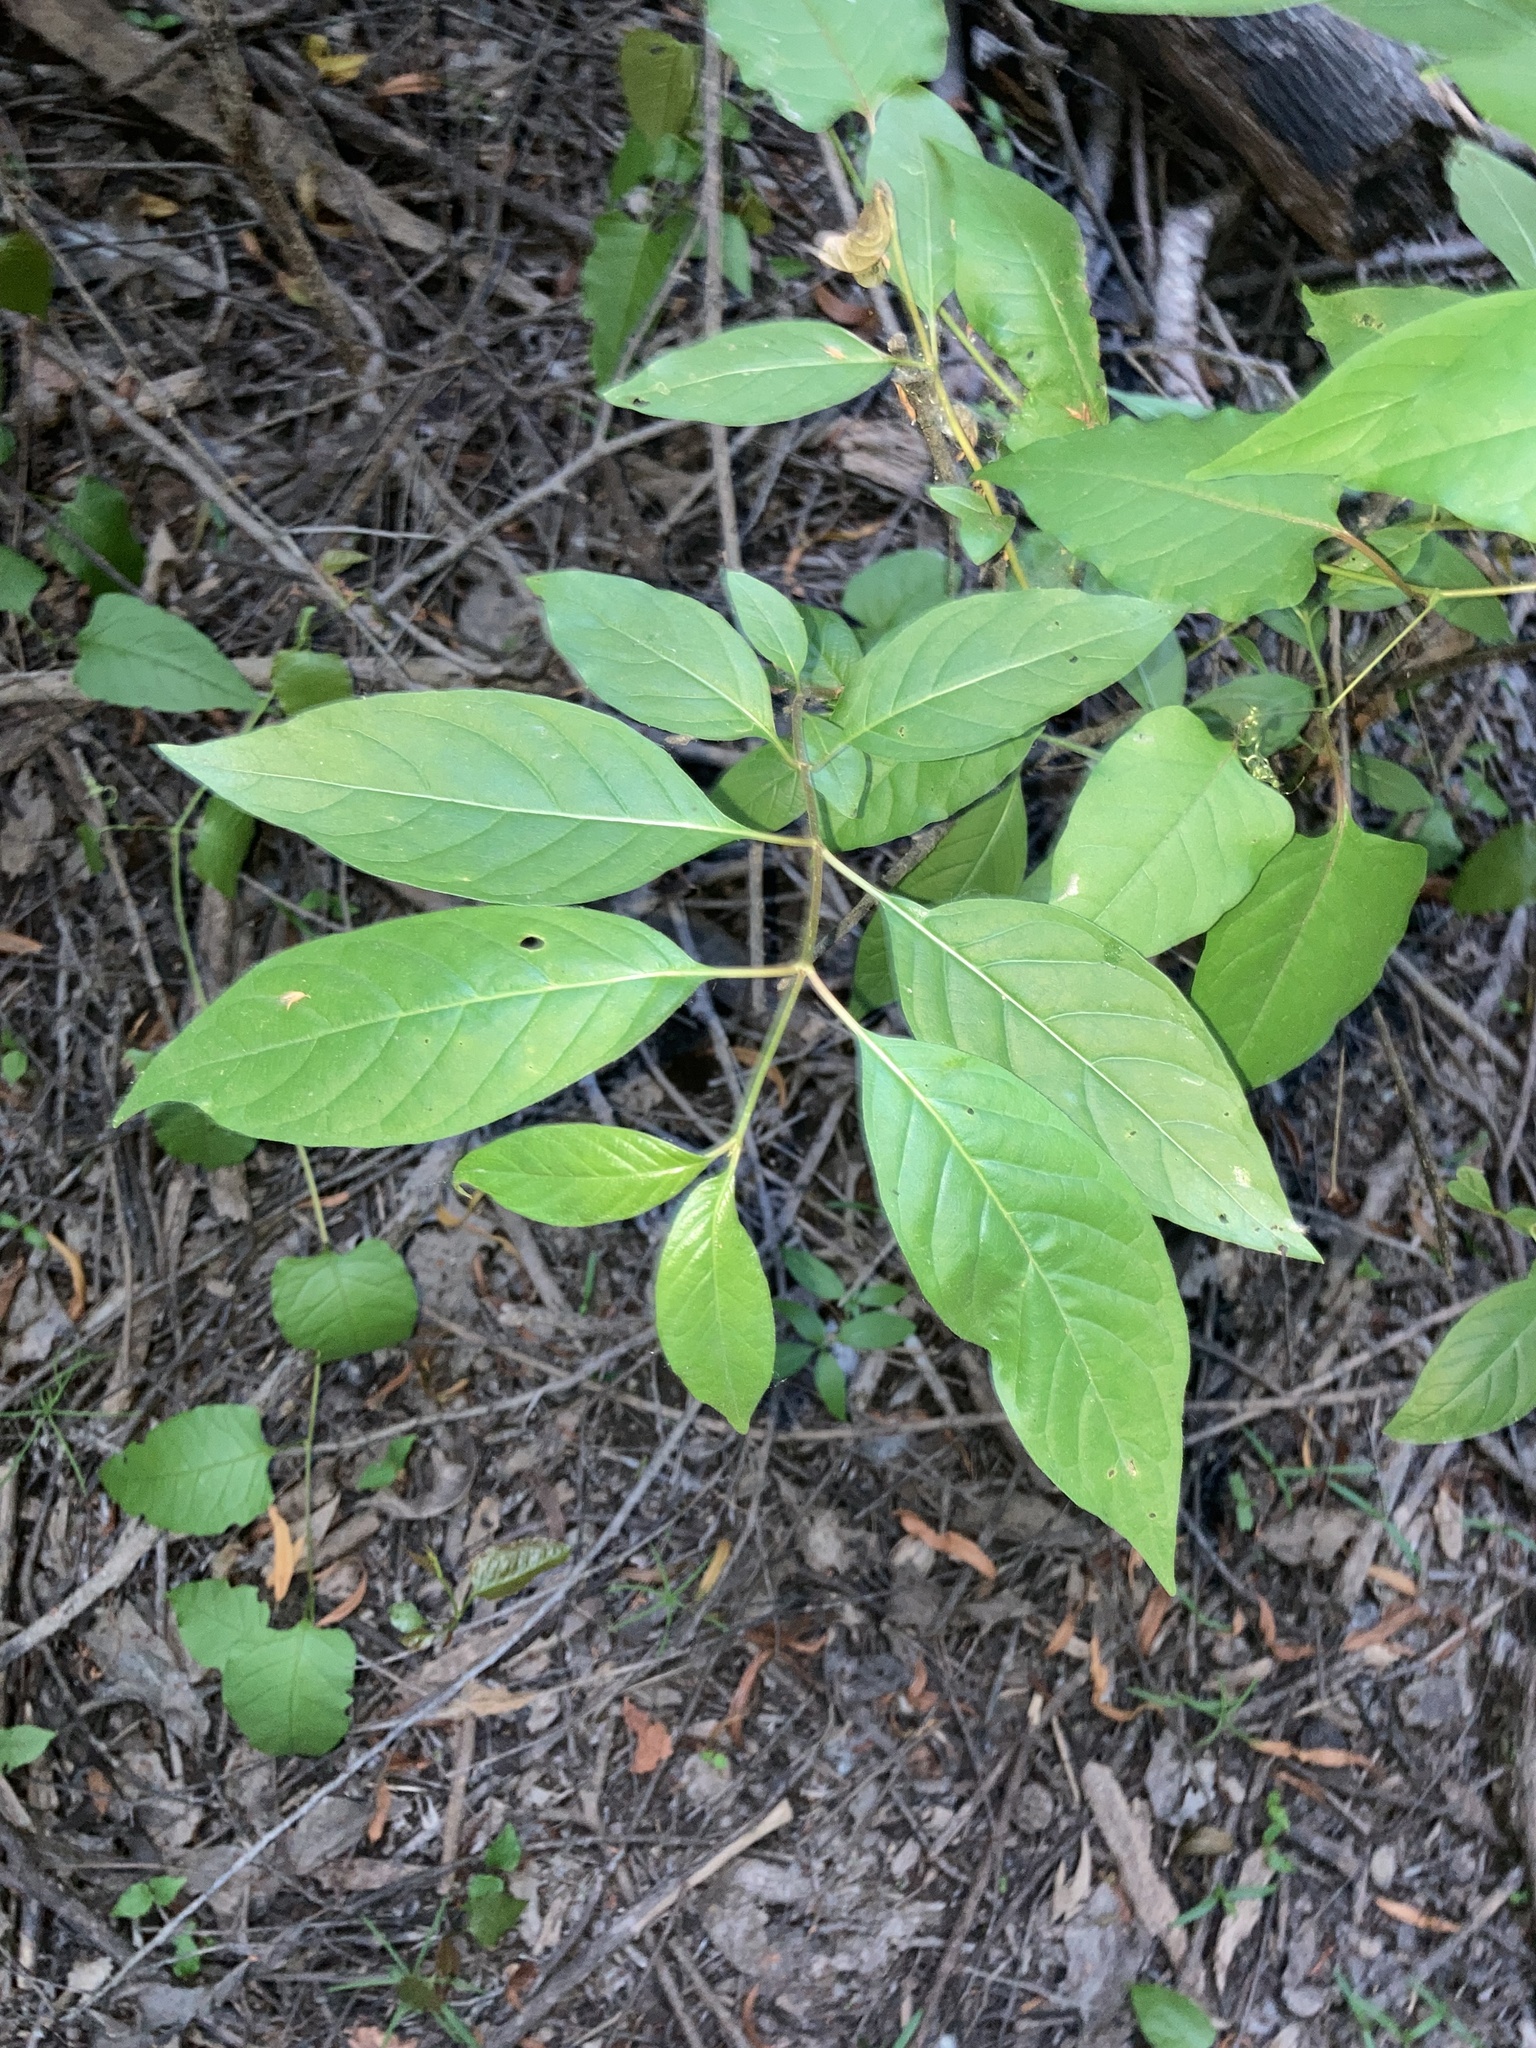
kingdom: Plantae
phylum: Tracheophyta
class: Magnoliopsida
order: Gentianales
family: Rubiaceae
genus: Cephalanthus
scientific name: Cephalanthus occidentalis
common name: Button-willow
